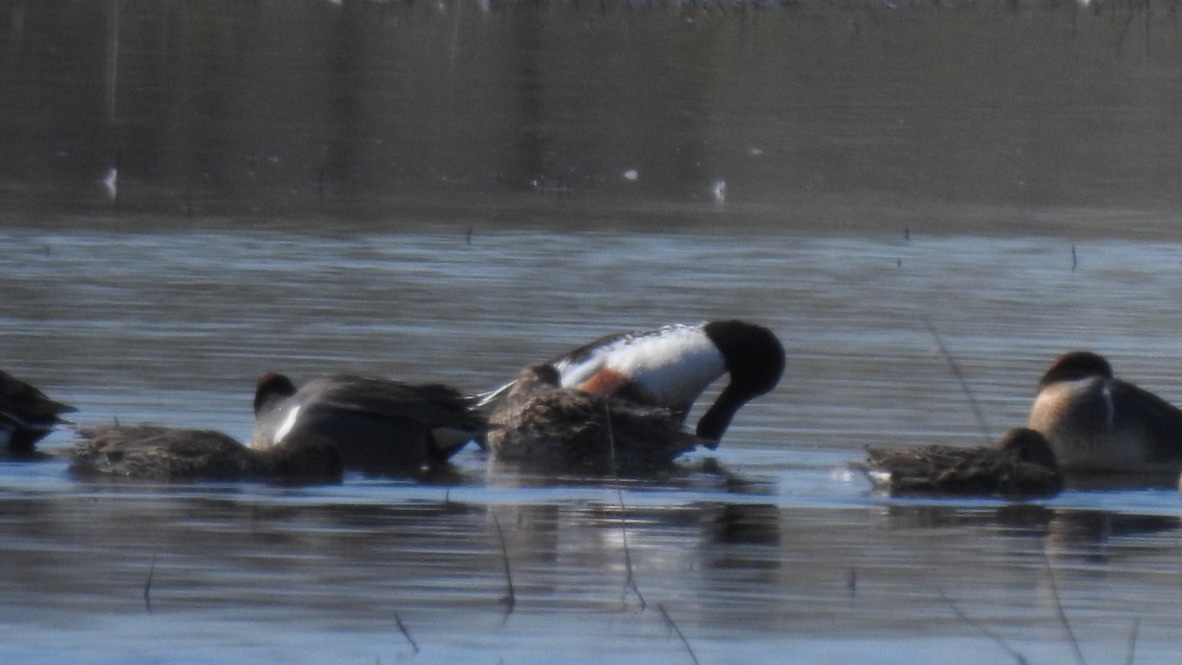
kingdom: Animalia
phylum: Chordata
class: Aves
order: Anseriformes
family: Anatidae
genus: Spatula
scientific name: Spatula clypeata
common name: Northern shoveler
